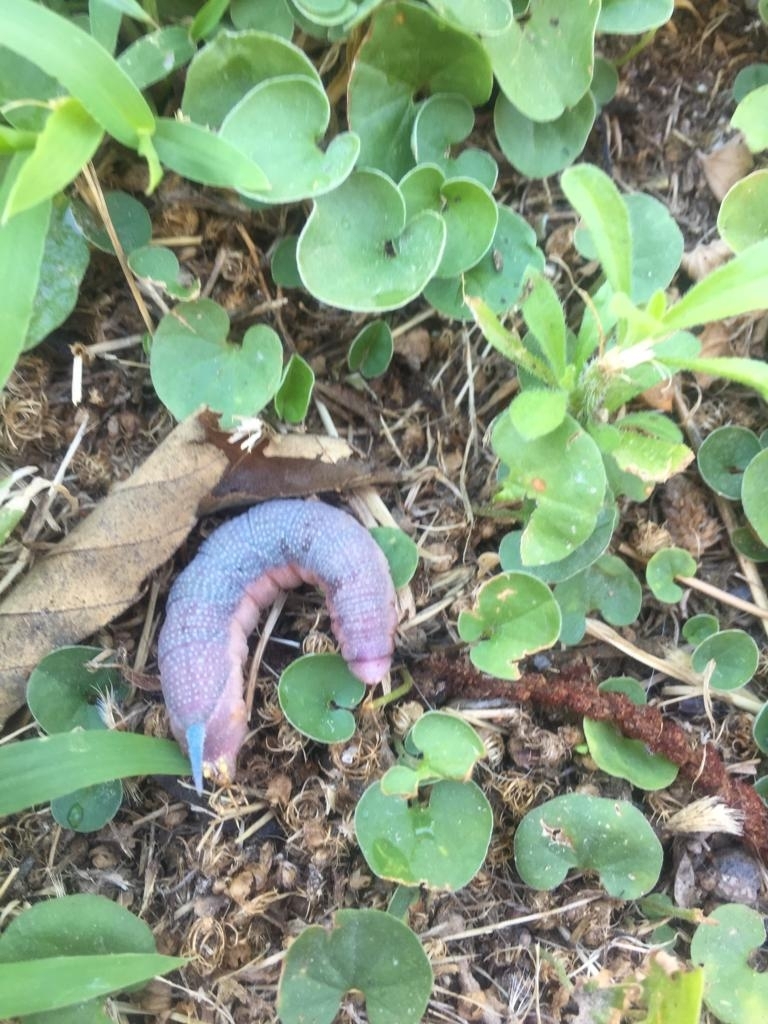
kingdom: Animalia
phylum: Arthropoda
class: Insecta
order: Lepidoptera
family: Sphingidae
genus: Mimas
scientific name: Mimas tiliae
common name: Lime hawk-moth
